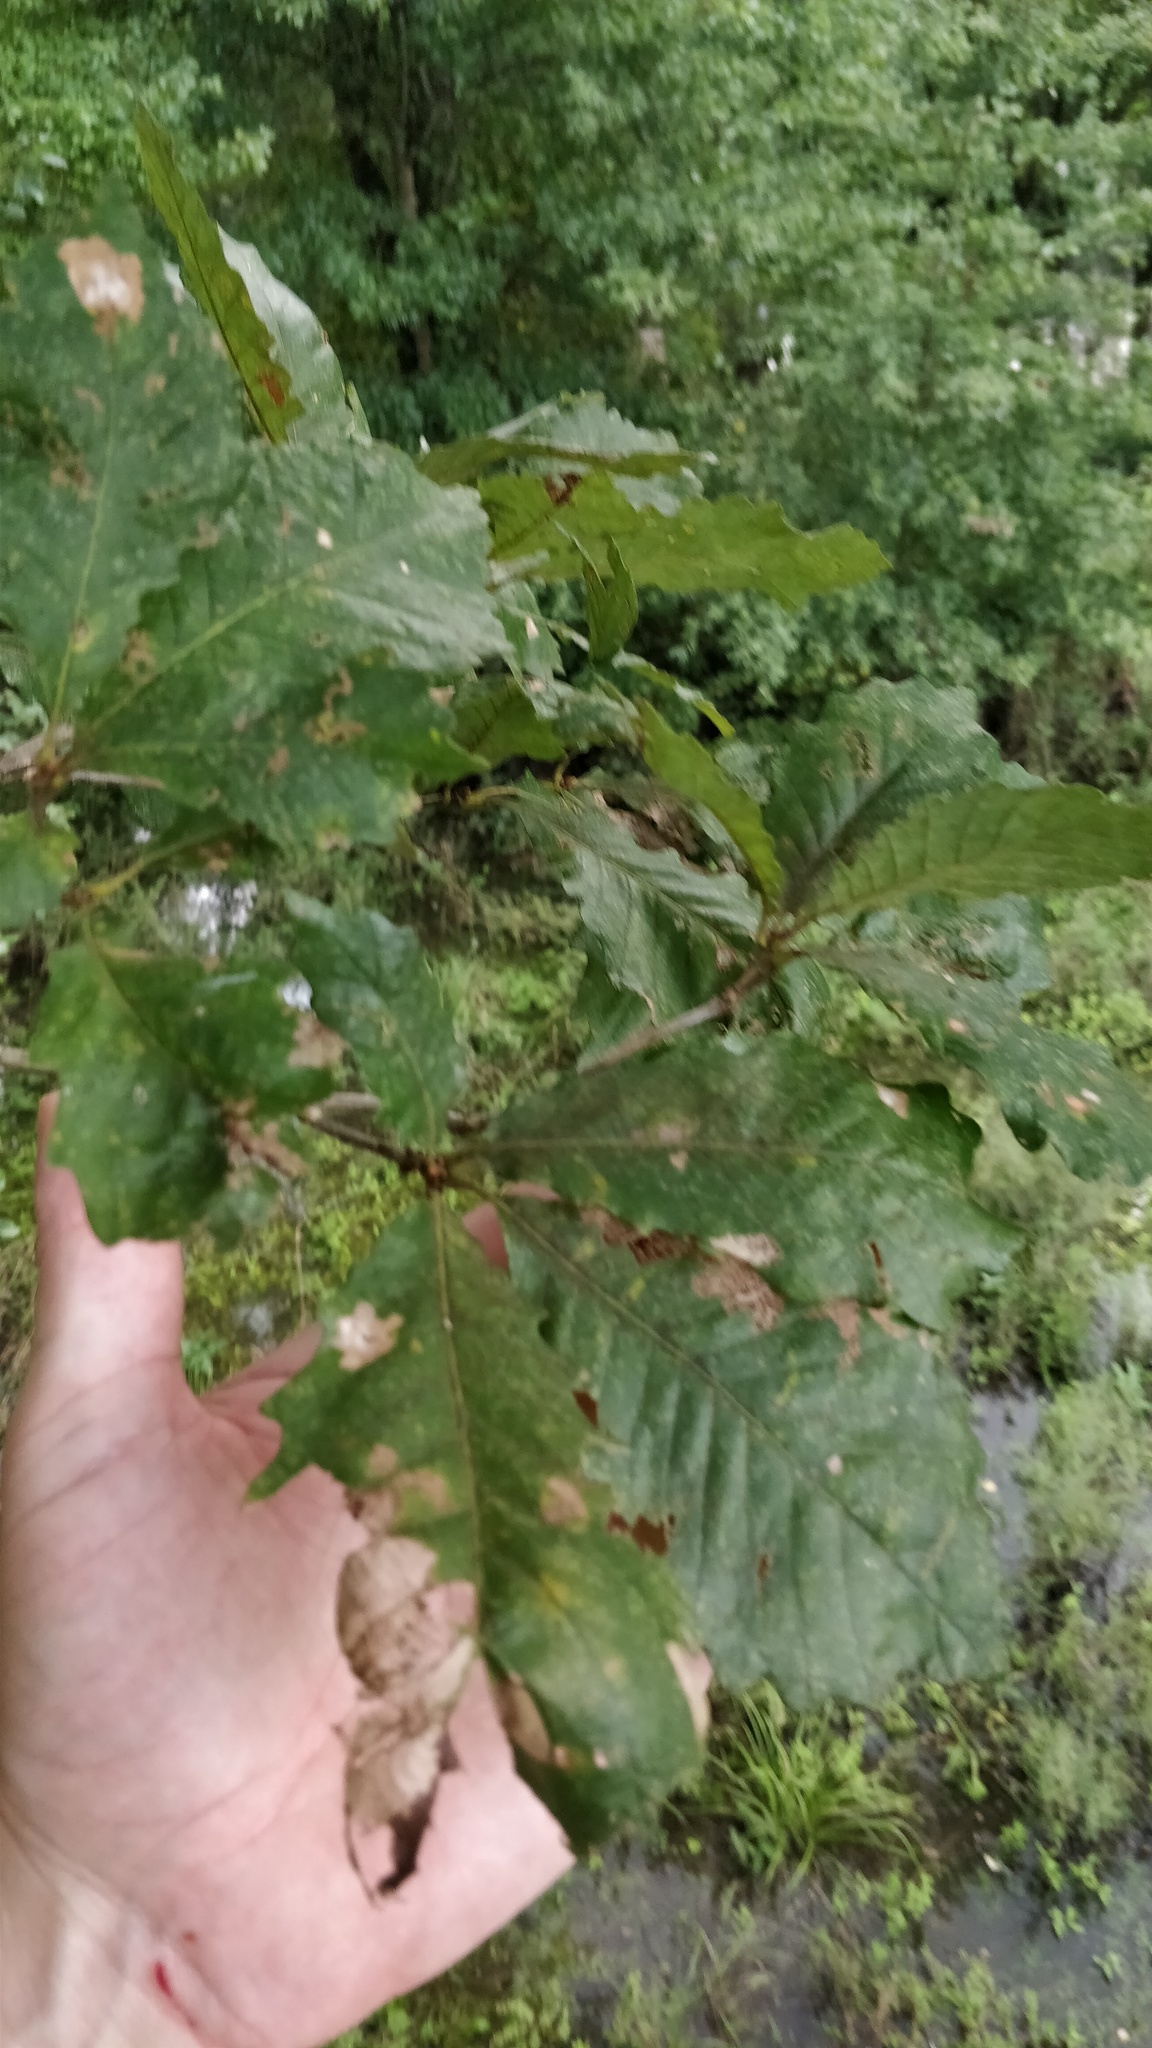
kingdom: Plantae
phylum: Tracheophyta
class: Magnoliopsida
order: Fagales
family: Fagaceae
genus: Quercus
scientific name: Quercus michauxii
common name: Swamp chestnut oak
